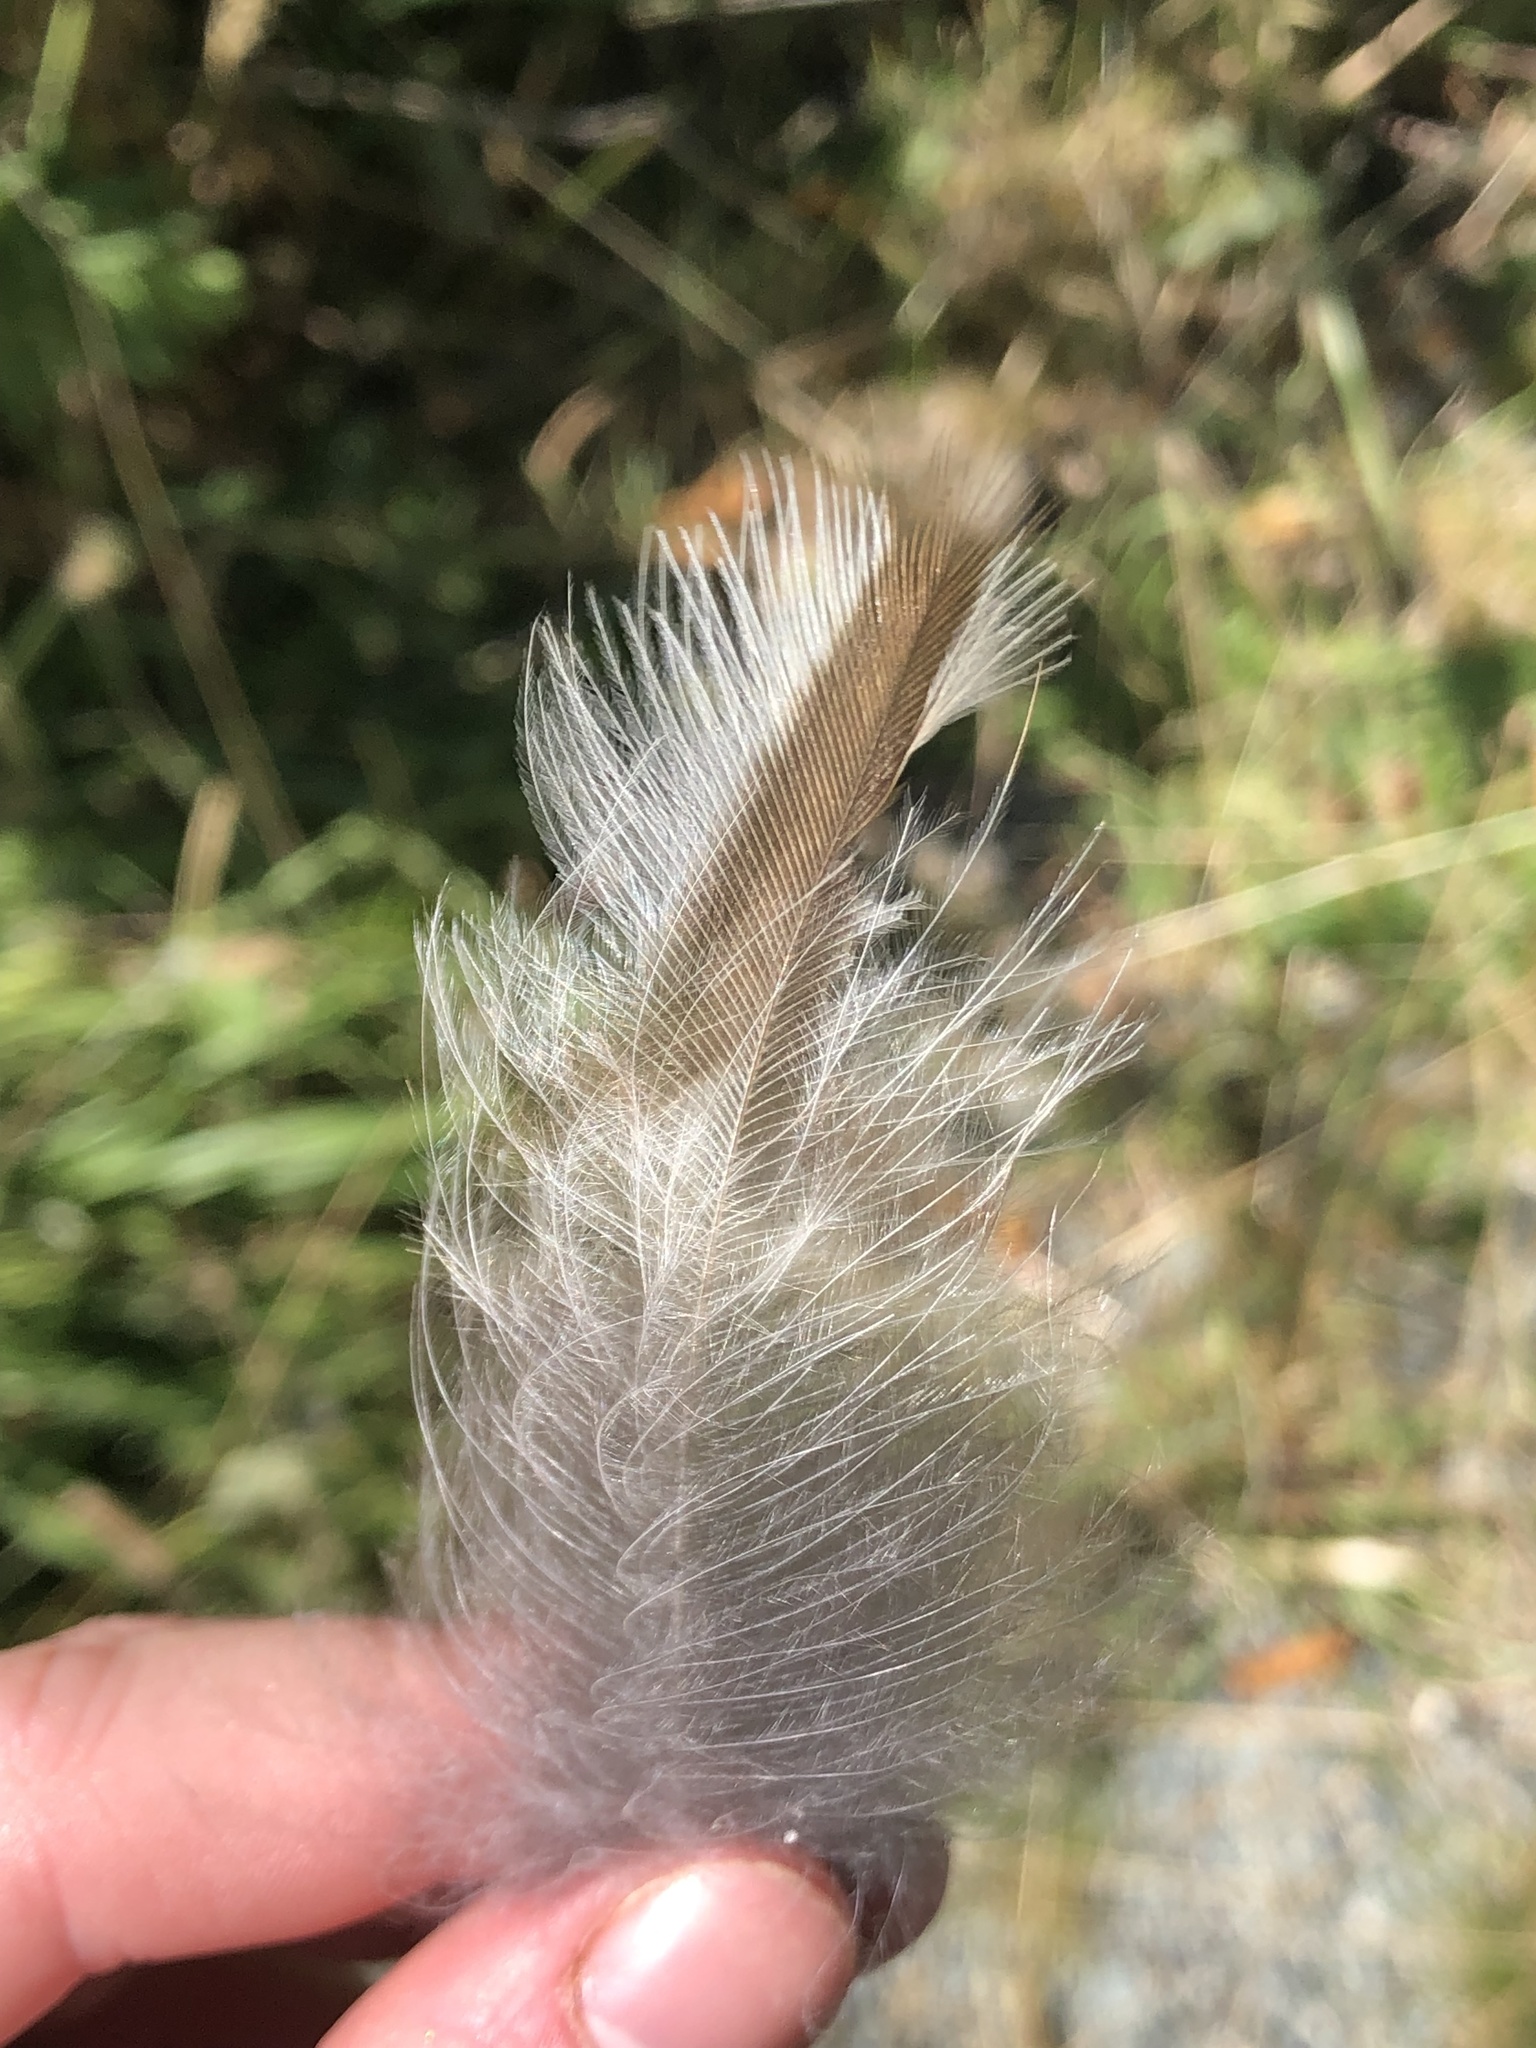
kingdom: Animalia
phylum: Chordata
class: Aves
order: Strigiformes
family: Strigidae
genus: Strix
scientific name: Strix varia
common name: Barred owl
